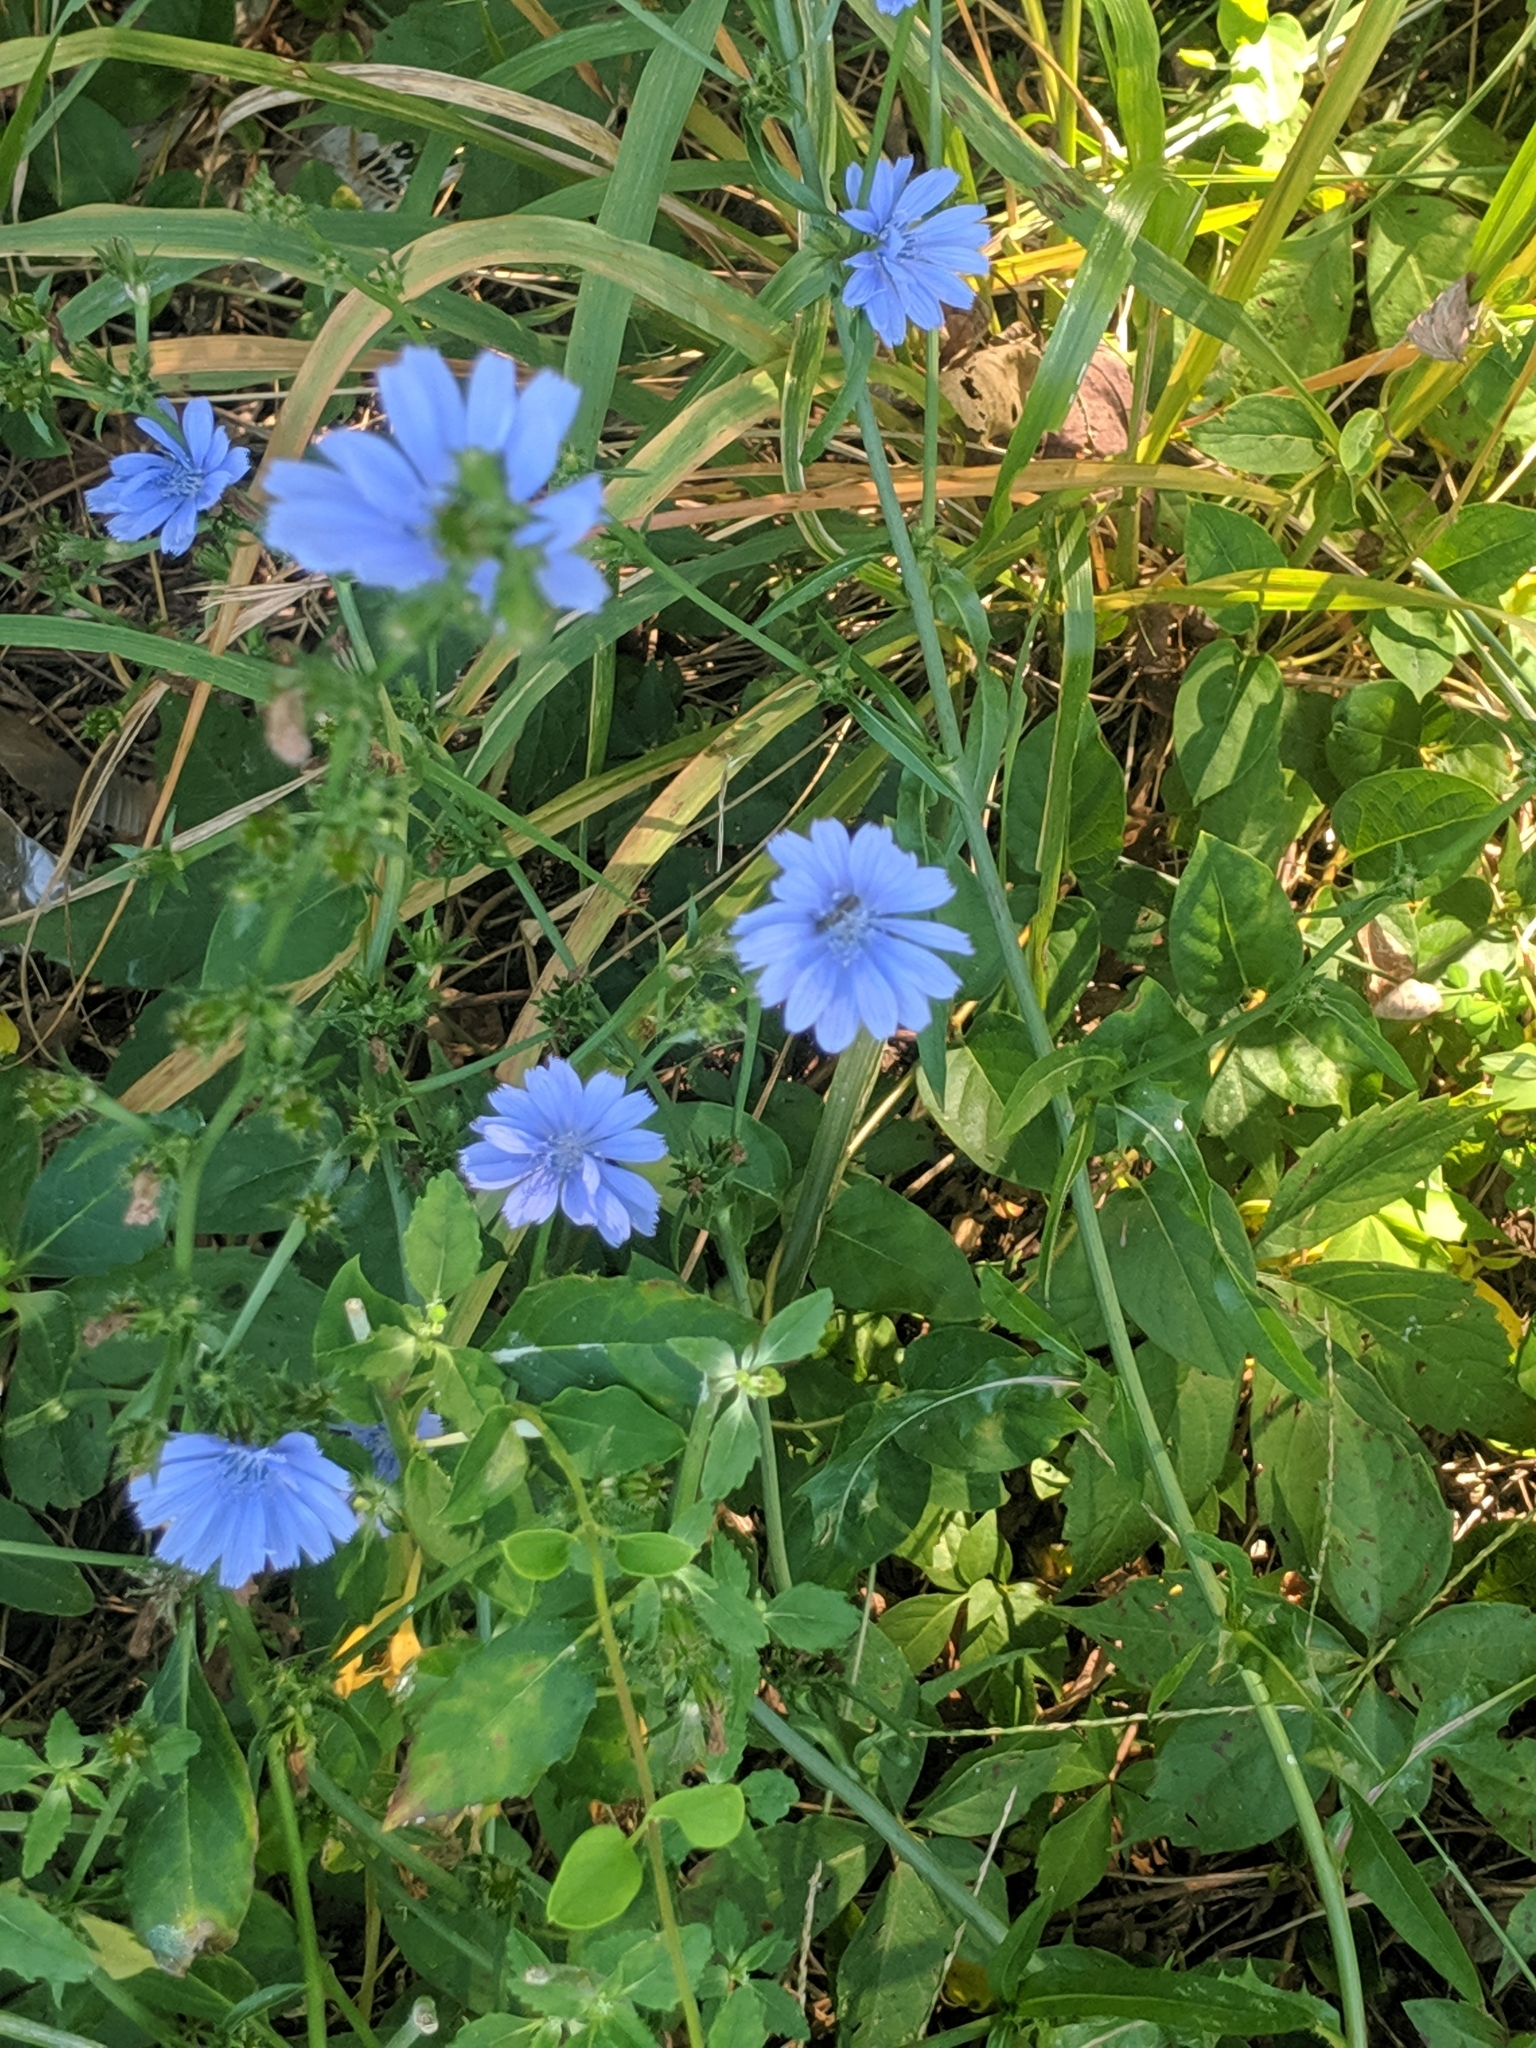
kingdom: Plantae
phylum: Tracheophyta
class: Magnoliopsida
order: Asterales
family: Asteraceae
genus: Cichorium
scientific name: Cichorium intybus
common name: Chicory
